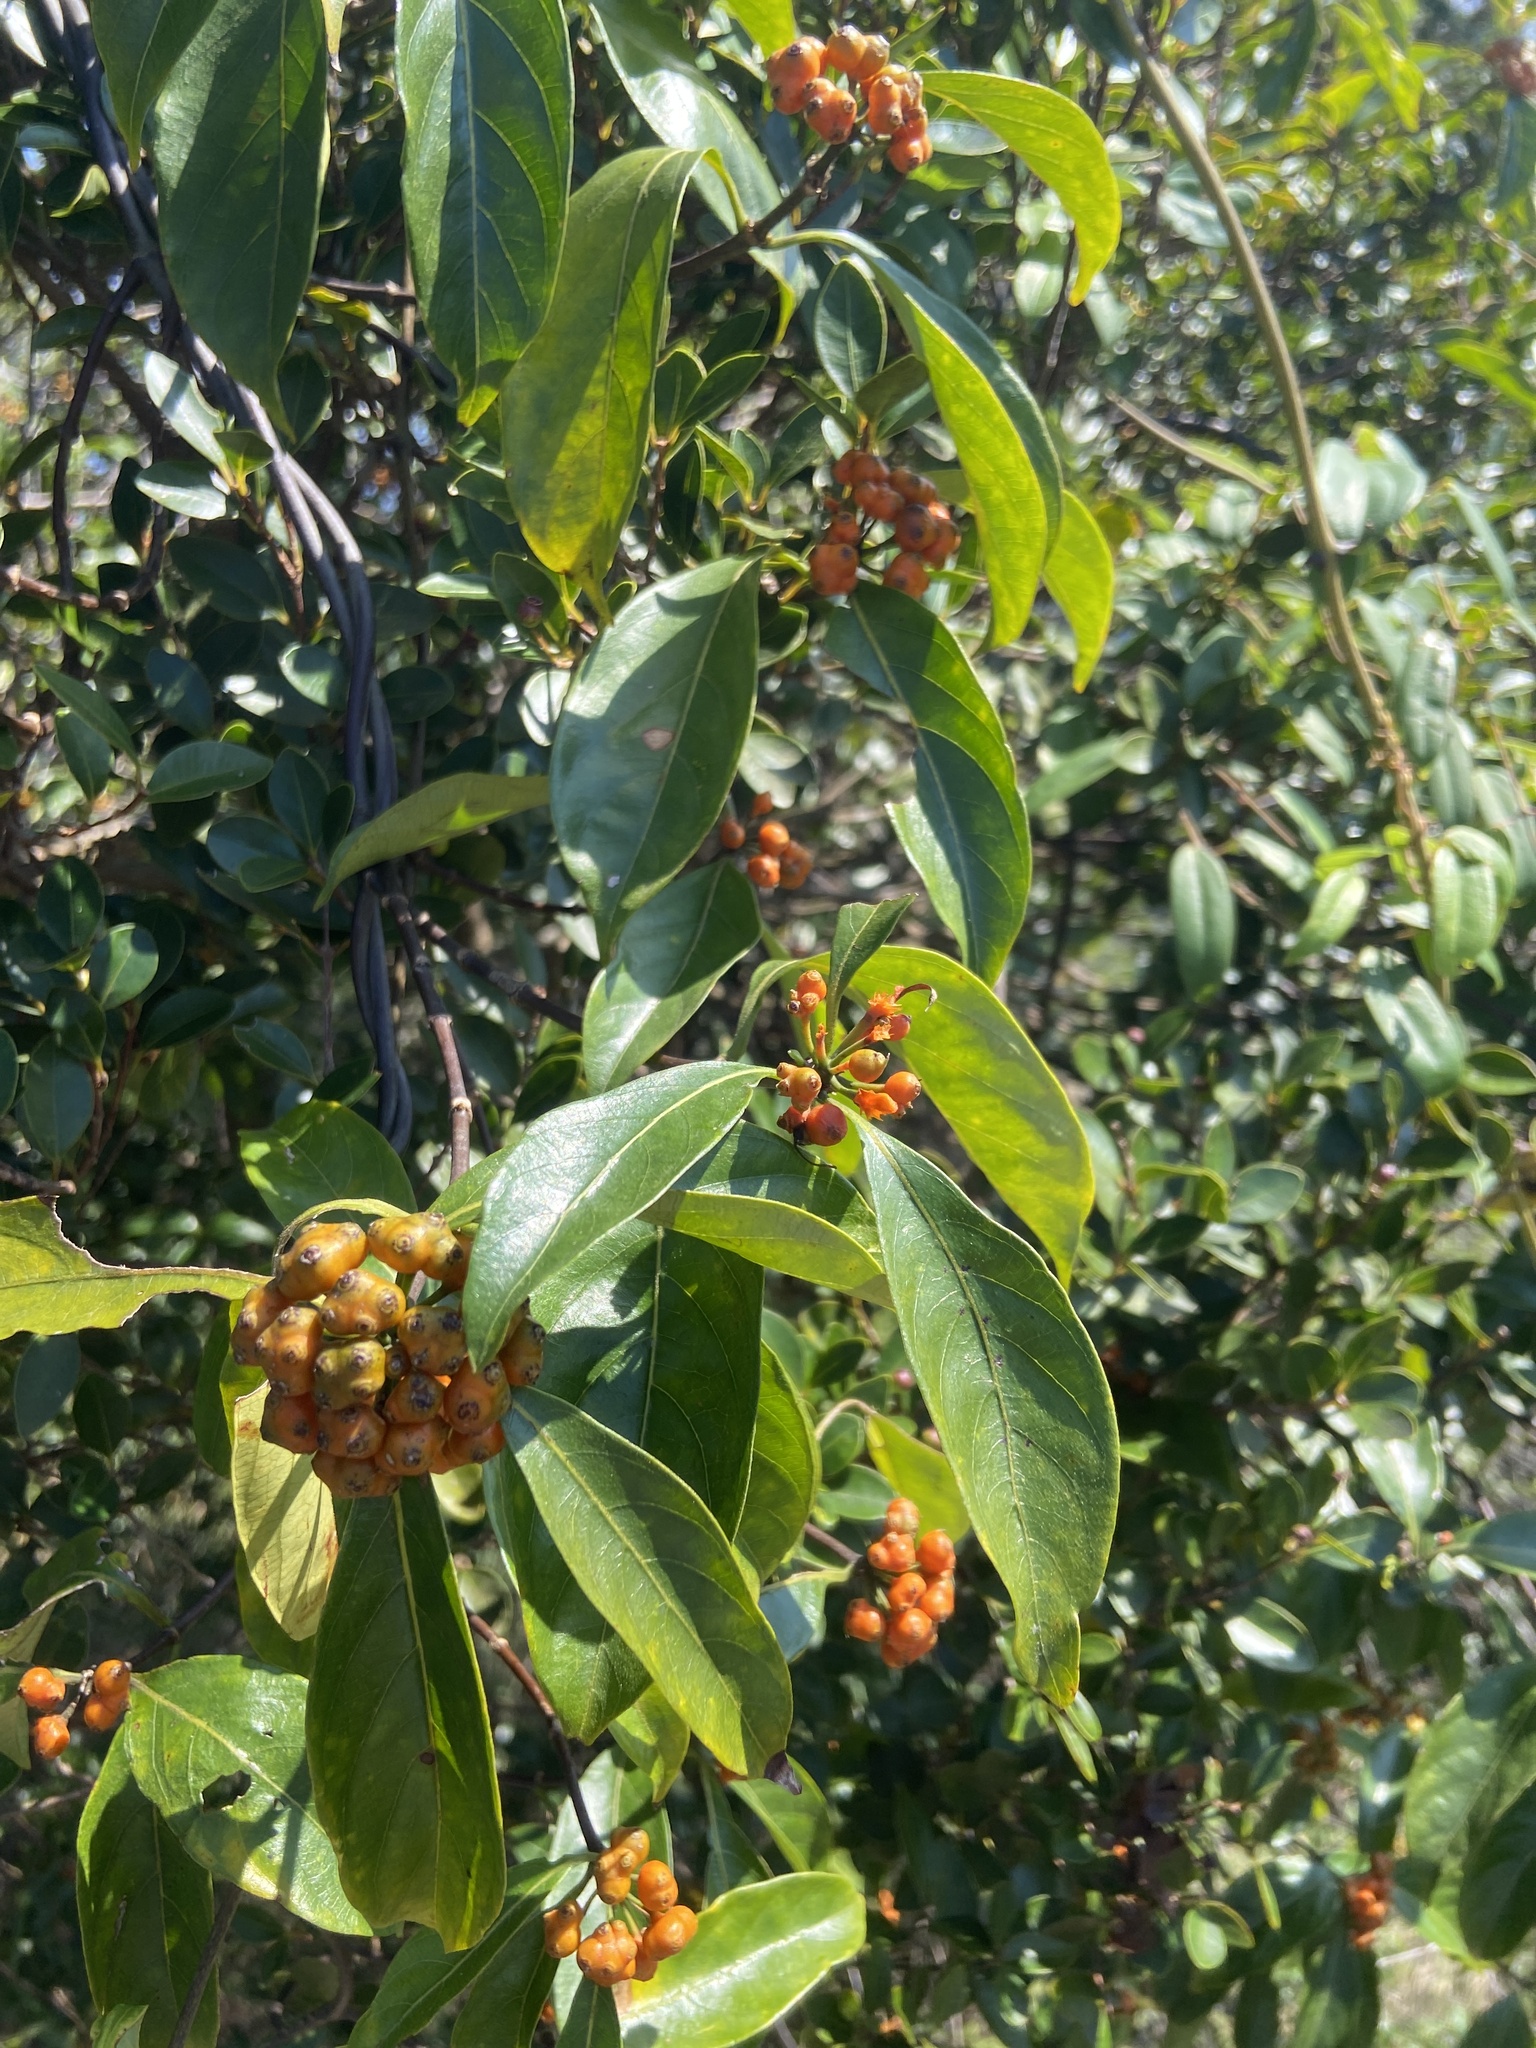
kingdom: Plantae
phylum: Tracheophyta
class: Magnoliopsida
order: Gentianales
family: Rubiaceae
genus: Gynochthodes
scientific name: Gynochthodes umbellata
